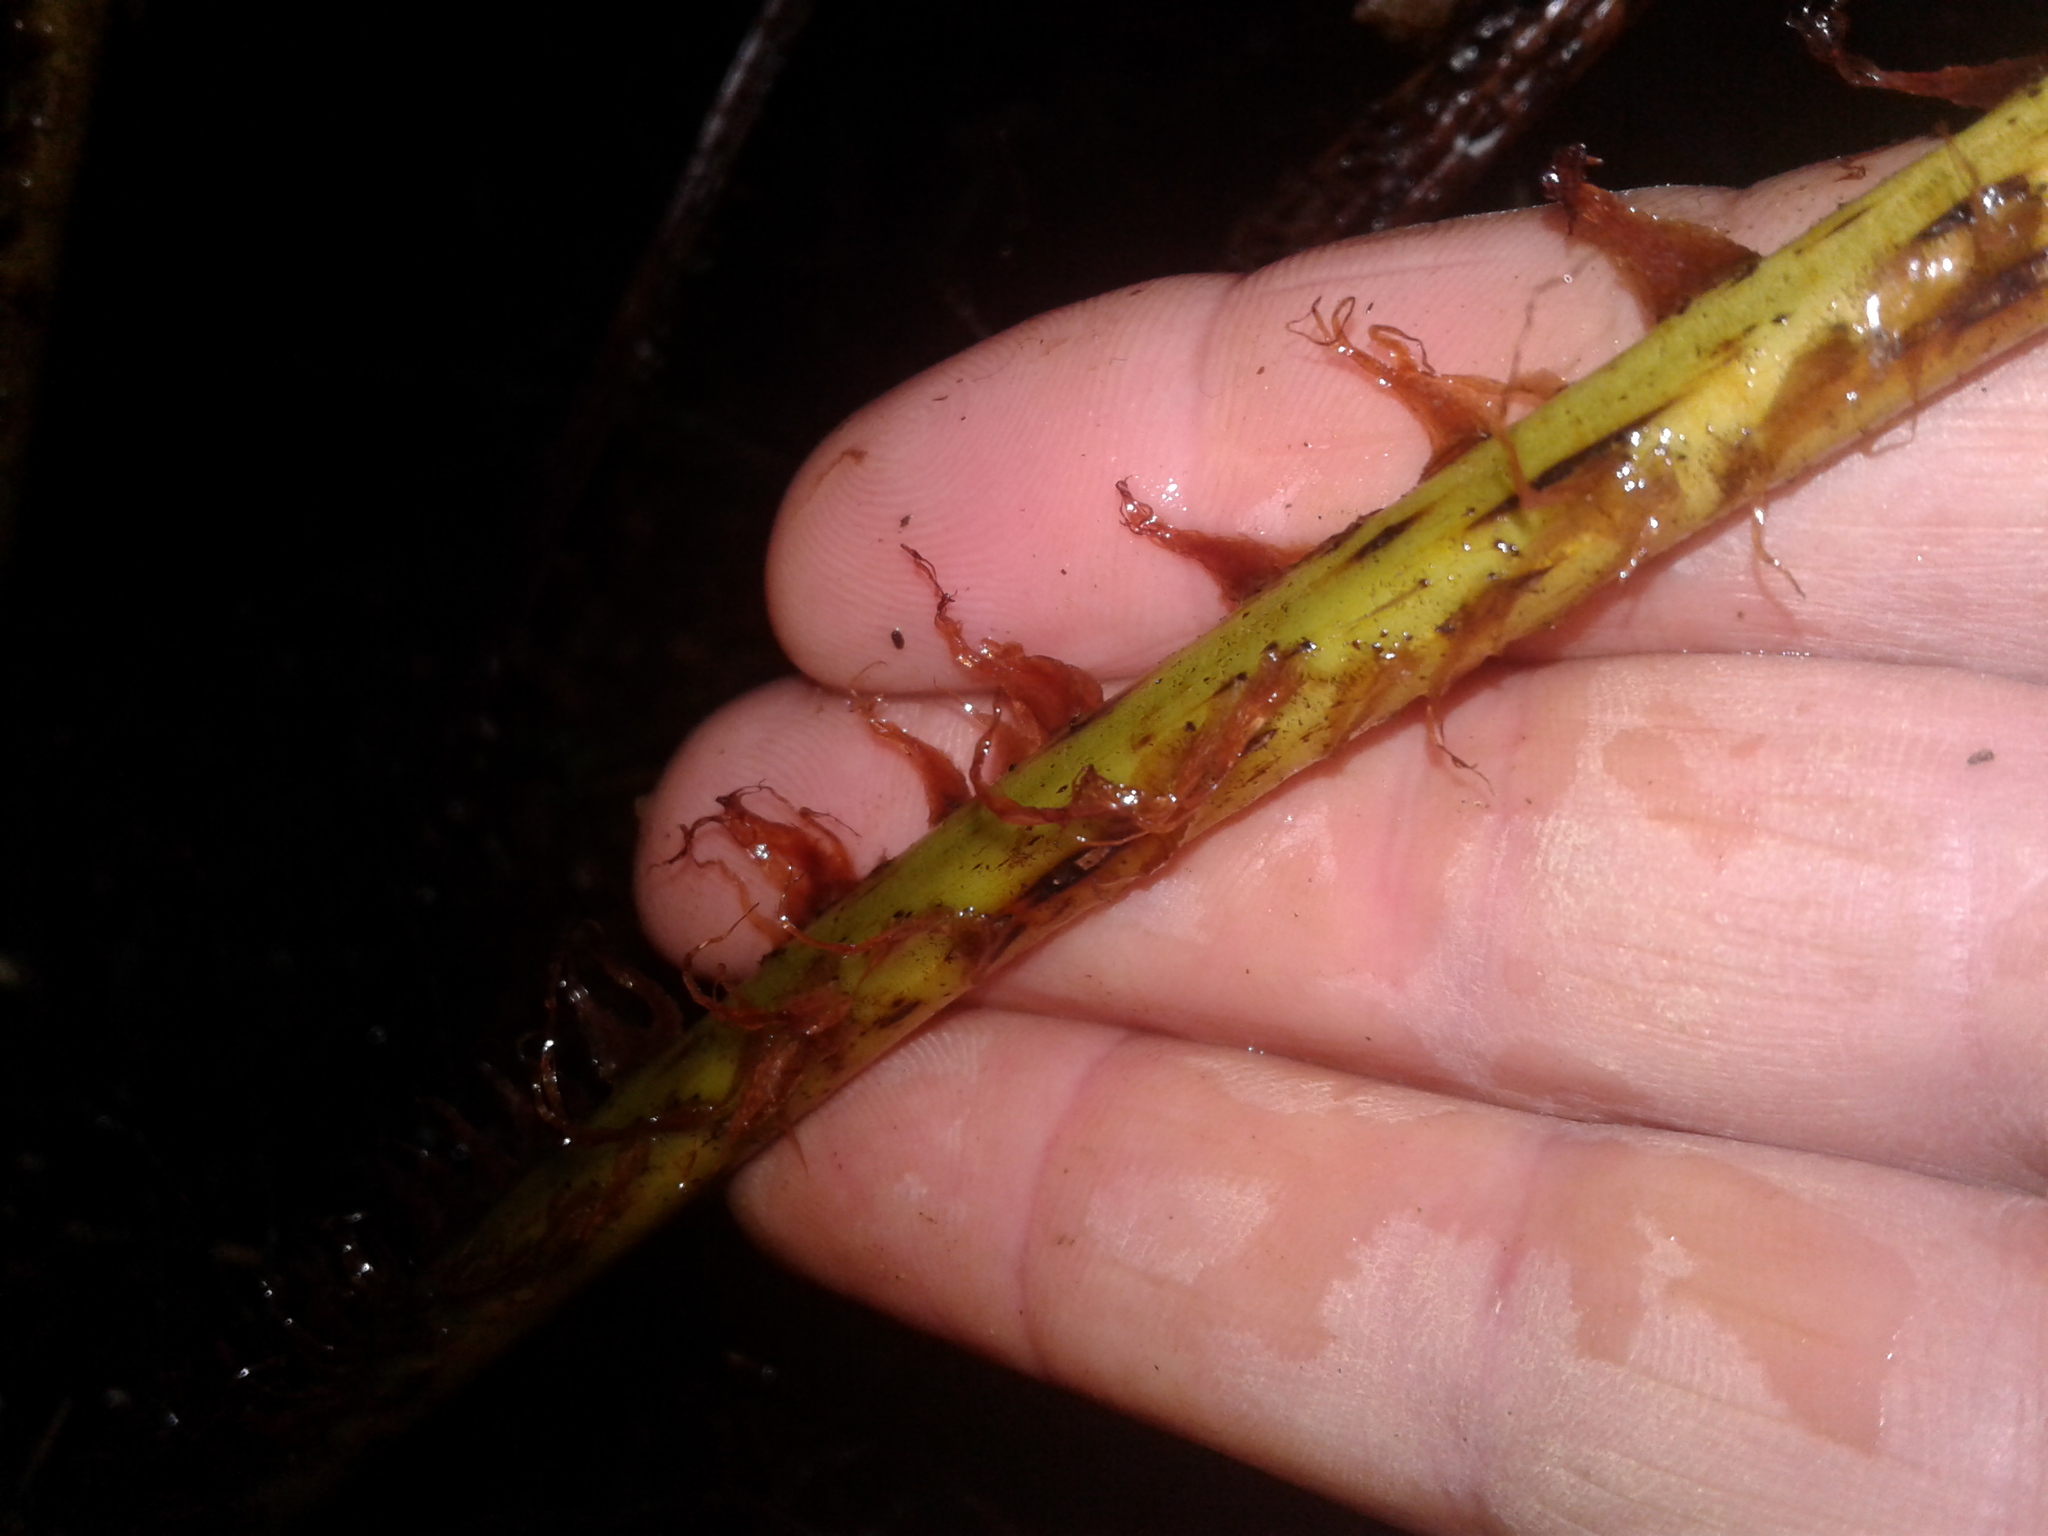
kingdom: Plantae
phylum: Tracheophyta
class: Polypodiopsida
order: Cyatheales
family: Cyatheaceae
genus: Alsophila
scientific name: Alsophila smithii
